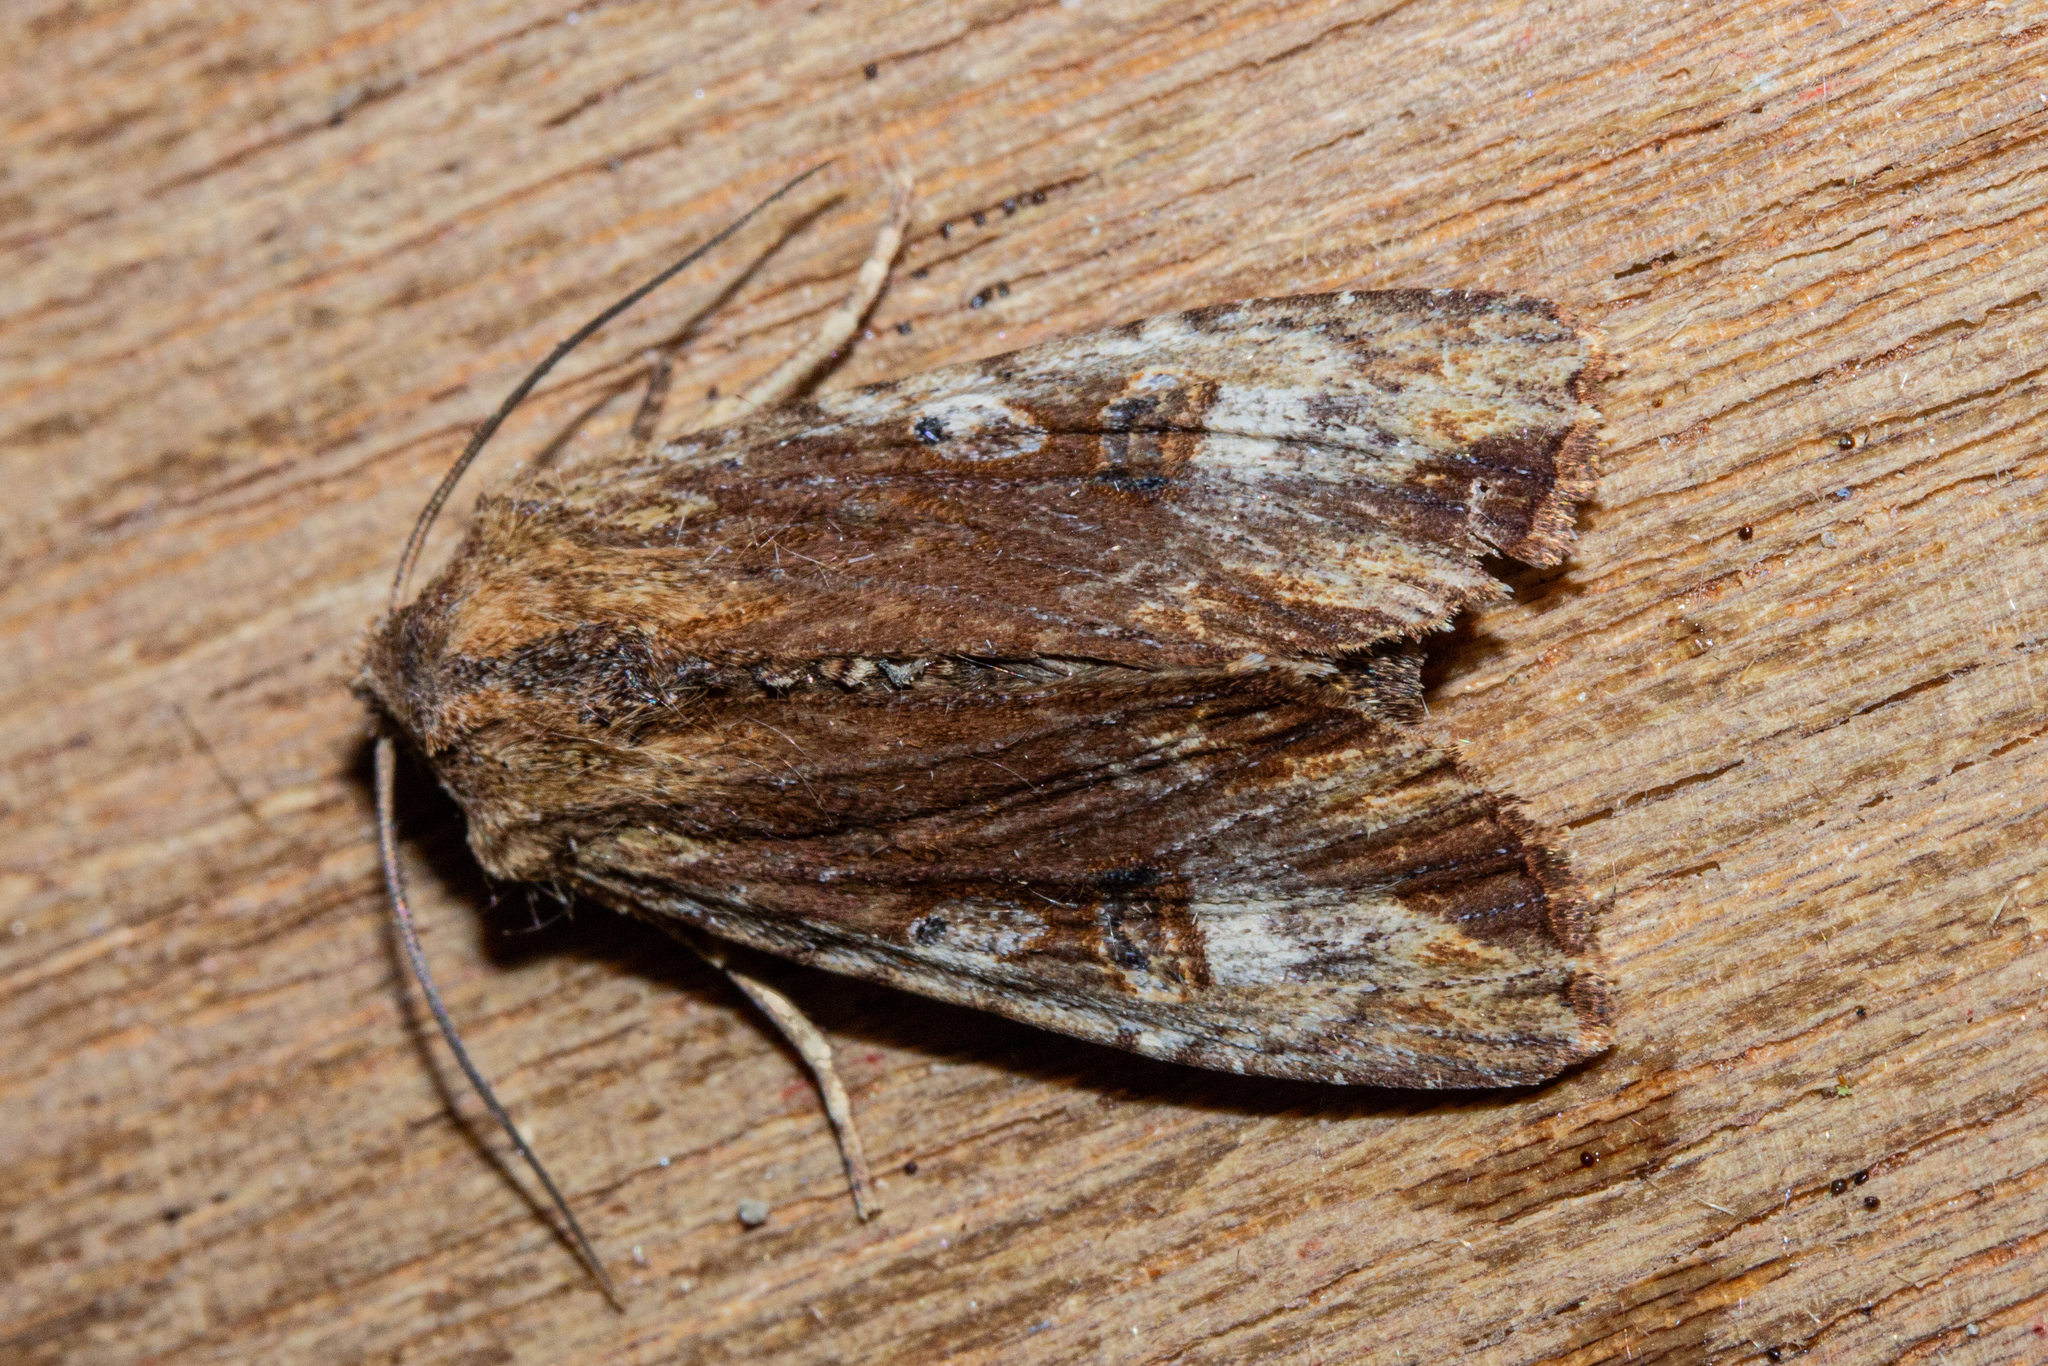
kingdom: Animalia
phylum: Arthropoda
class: Insecta
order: Lepidoptera
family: Noctuidae
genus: Ichneutica
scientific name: Ichneutica
